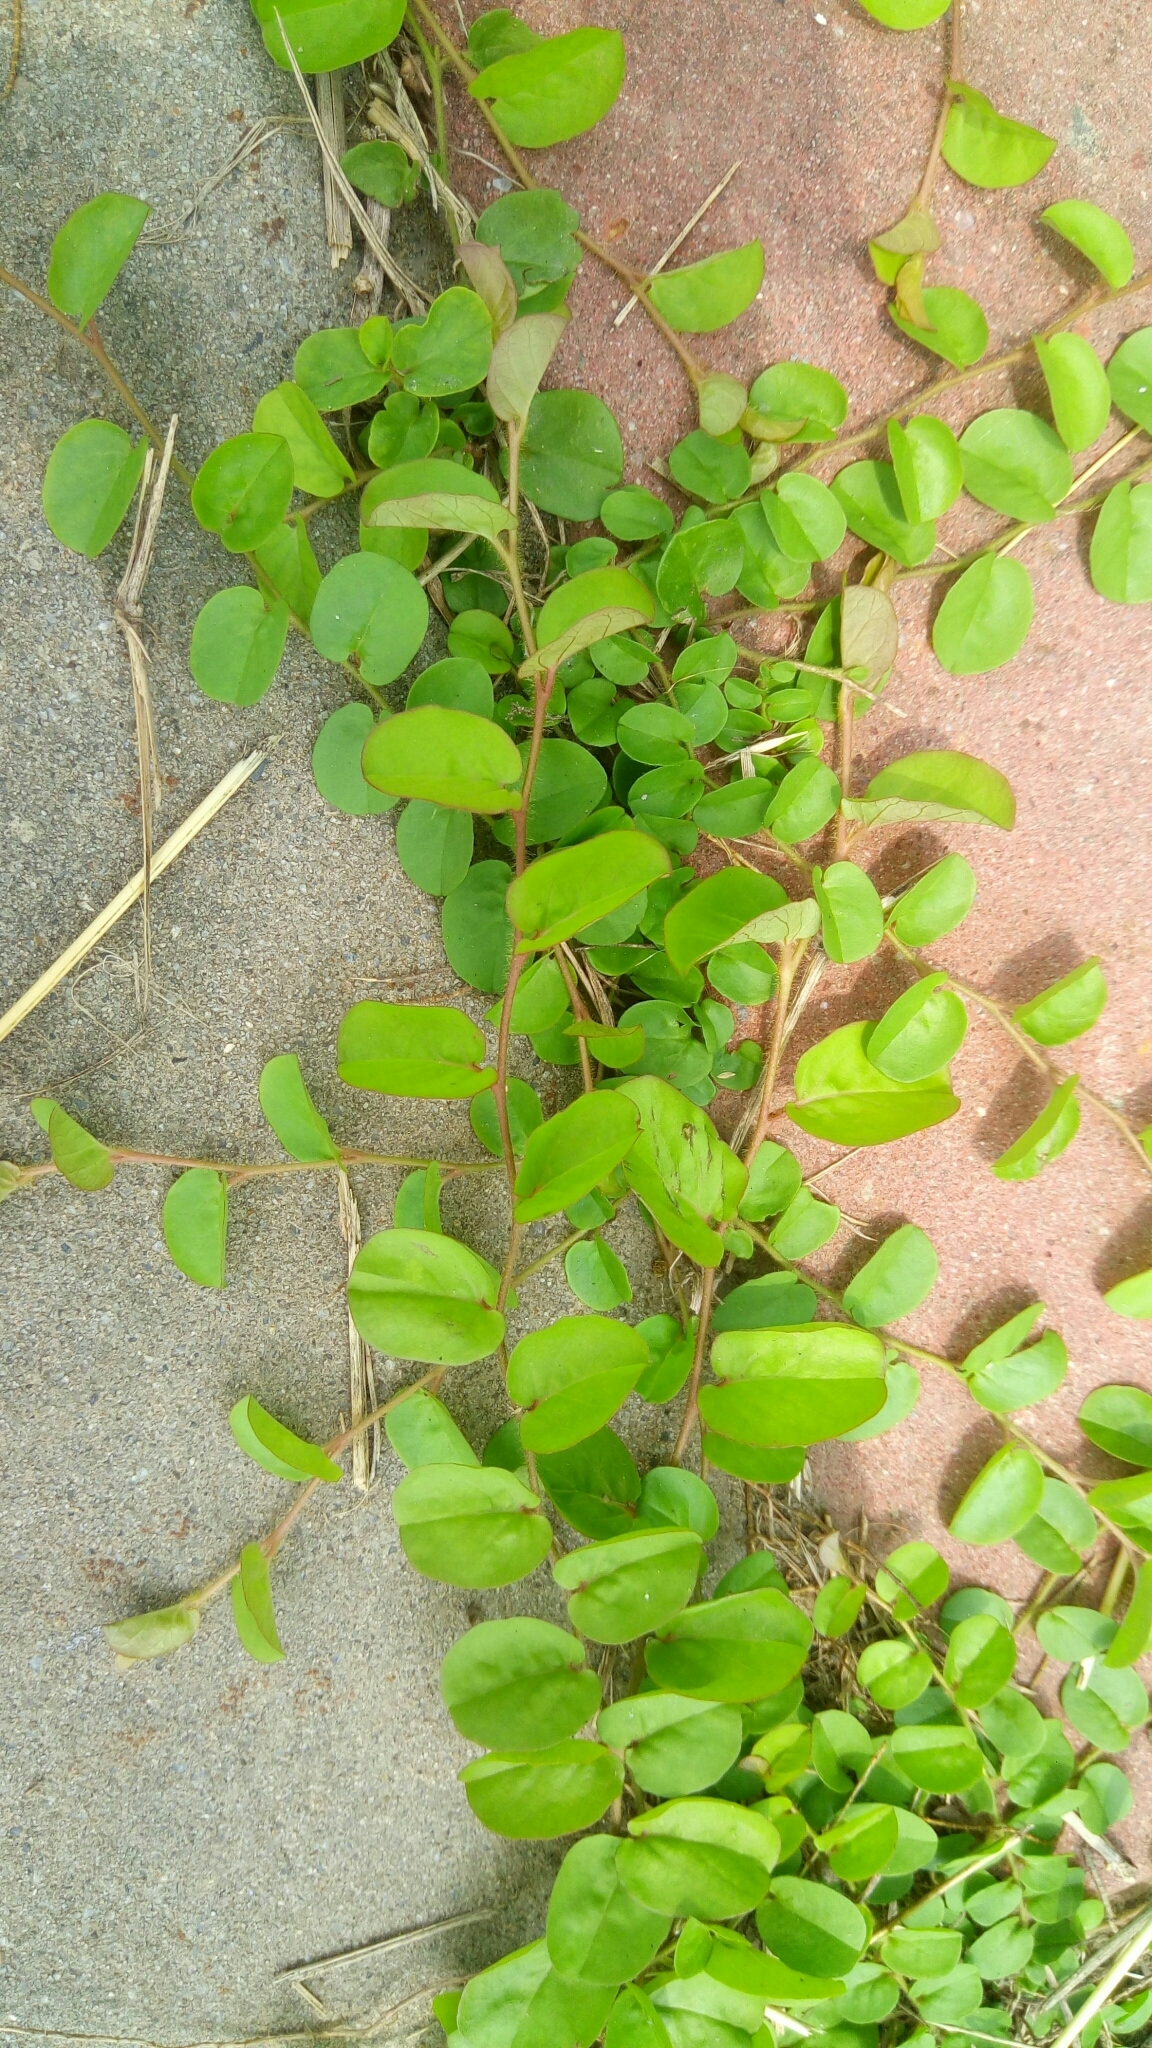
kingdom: Plantae
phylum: Tracheophyta
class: Magnoliopsida
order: Solanales
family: Convolvulaceae
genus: Evolvulus
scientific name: Evolvulus nummularius
